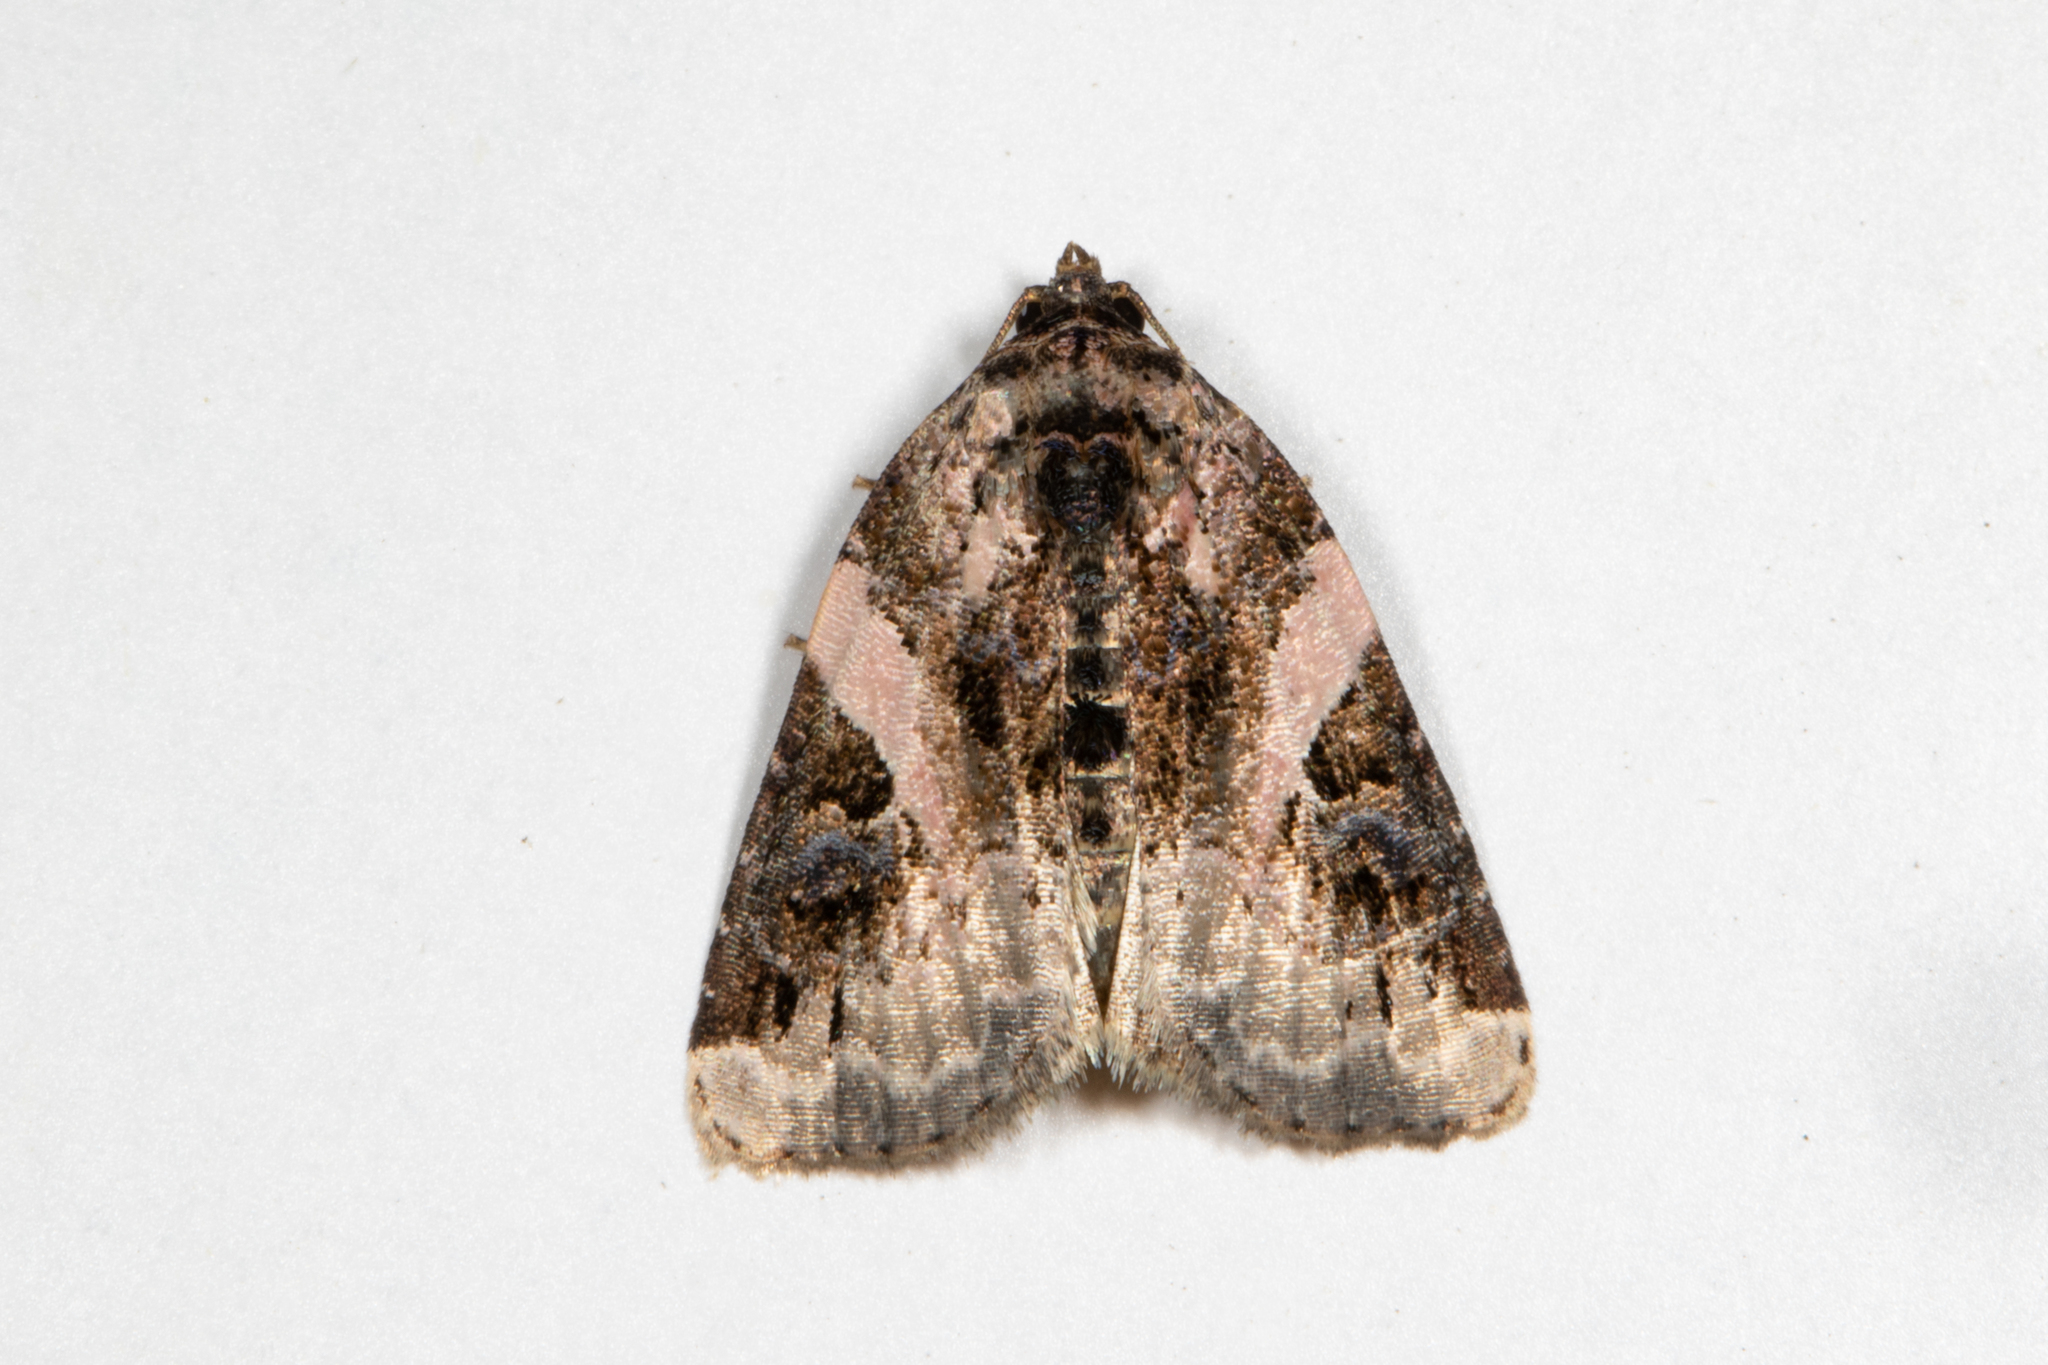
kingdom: Animalia
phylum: Arthropoda
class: Insecta
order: Lepidoptera
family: Noctuidae
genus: Pseudeustrotia
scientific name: Pseudeustrotia carneola
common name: Pink-barred lithacodia moth
